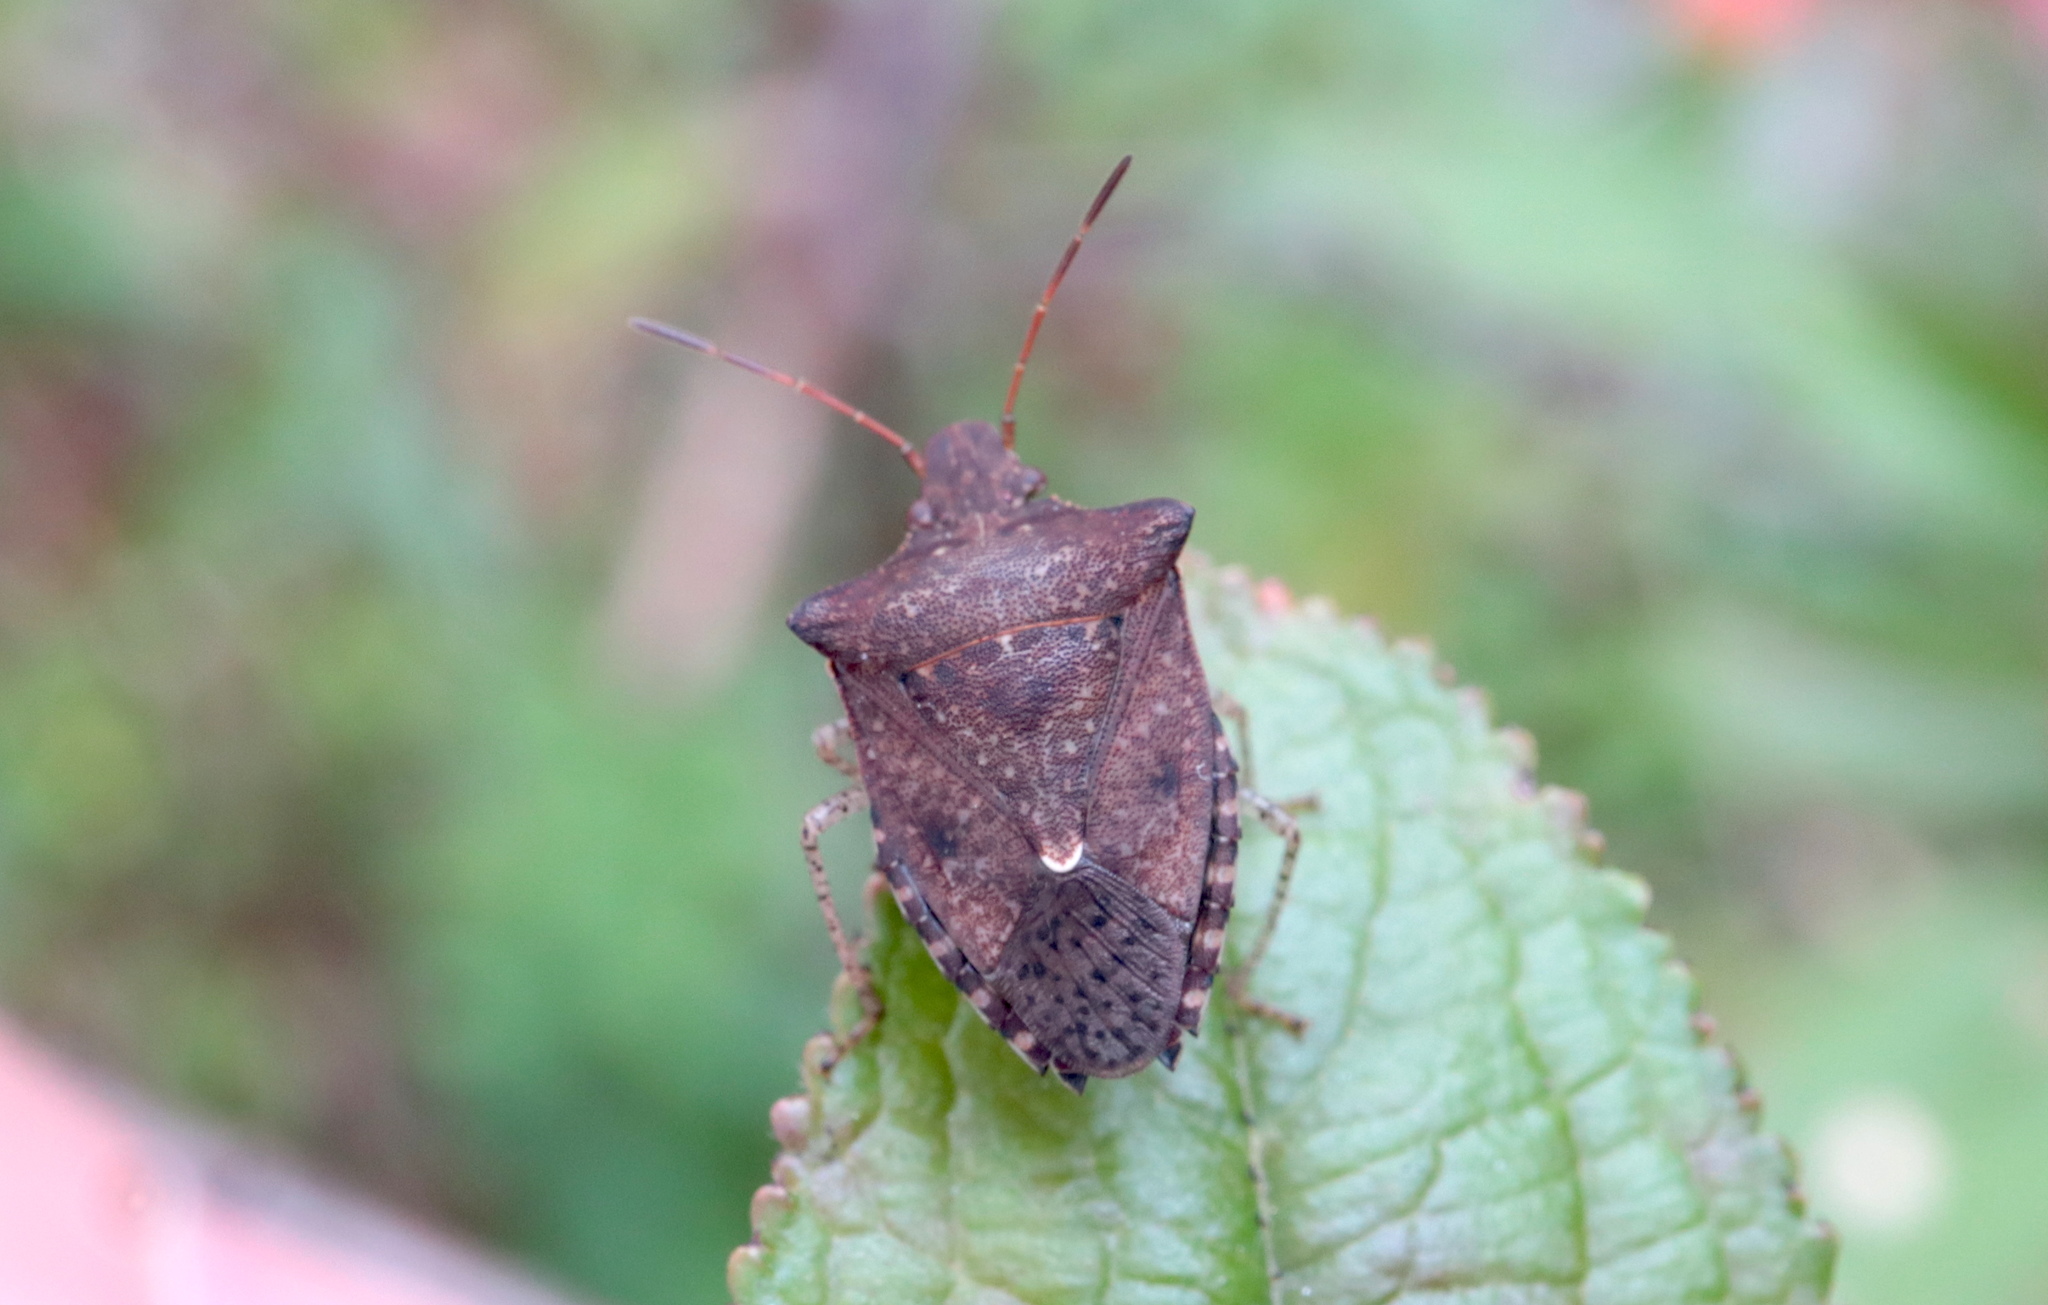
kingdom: Animalia
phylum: Arthropoda
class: Insecta
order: Hemiptera
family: Pentatomidae
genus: Euschistus
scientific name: Euschistus tristigmus
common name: Dusky stink bug
